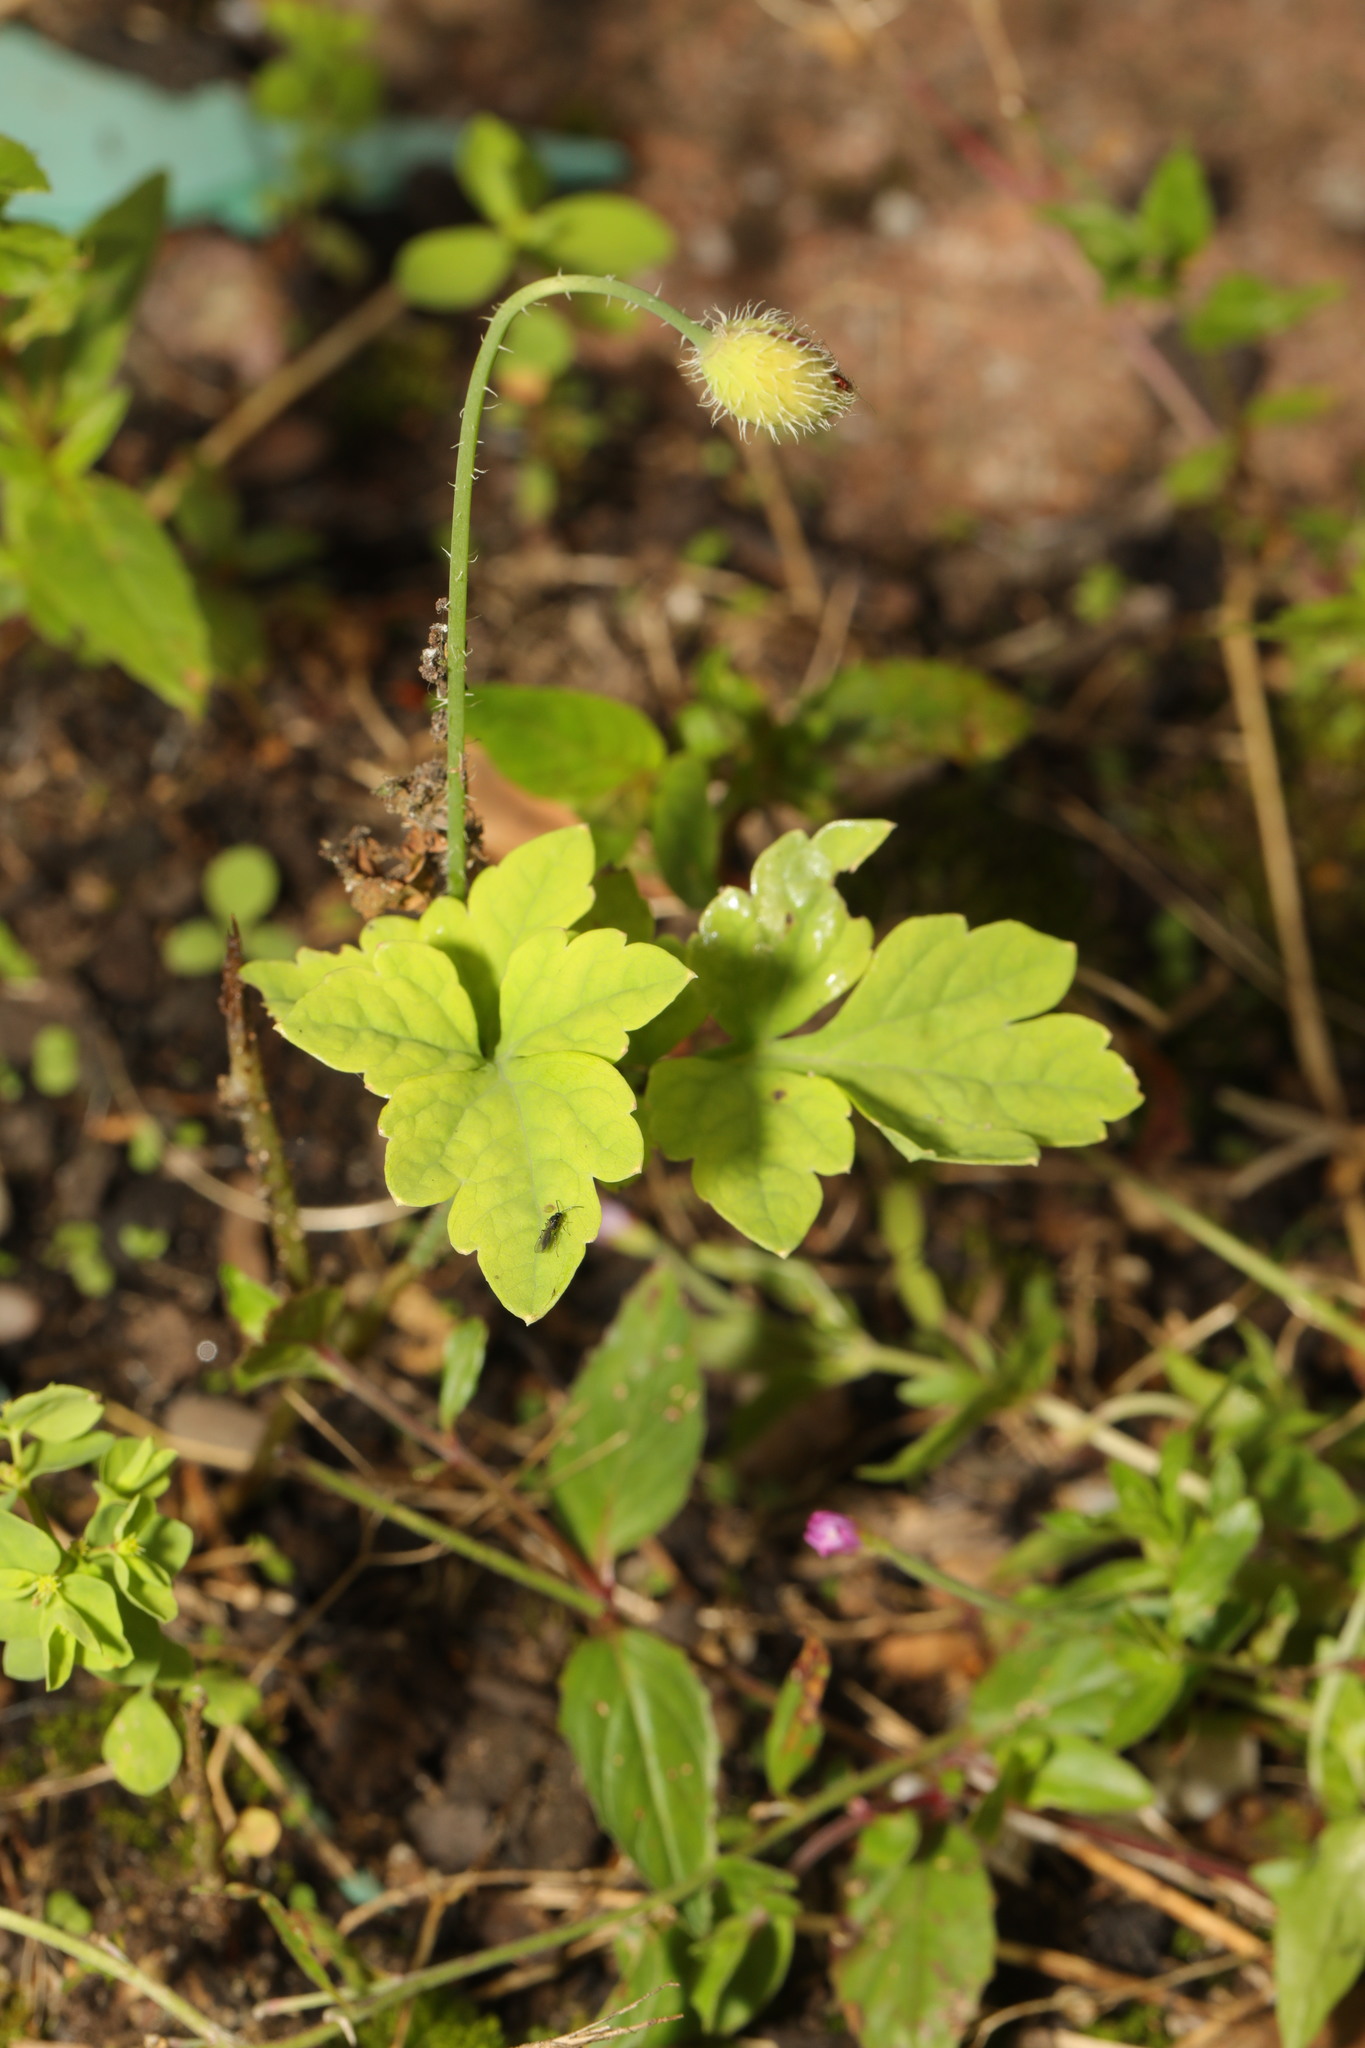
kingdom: Plantae
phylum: Tracheophyta
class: Magnoliopsida
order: Ranunculales
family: Papaveraceae
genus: Papaver
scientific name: Papaver cambricum
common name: Poppy
